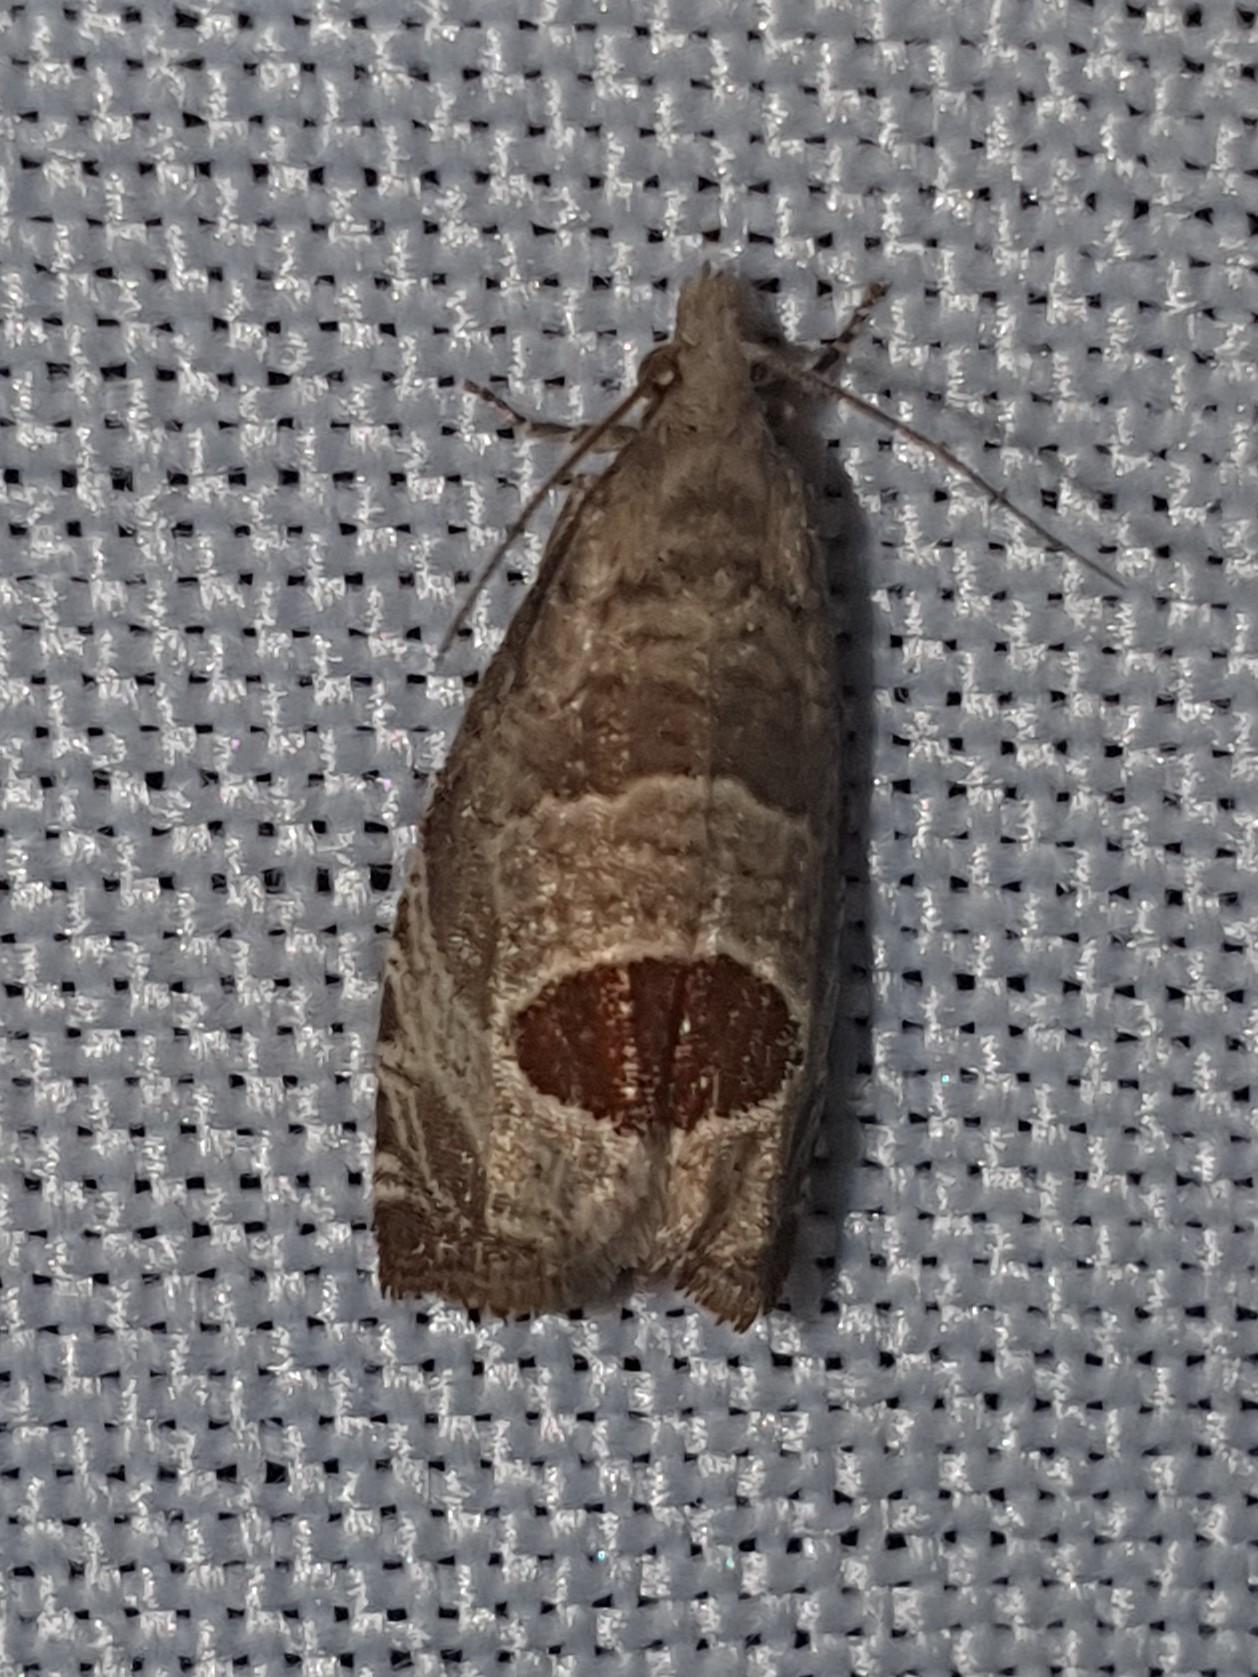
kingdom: Animalia
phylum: Arthropoda
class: Insecta
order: Lepidoptera
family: Tortricidae
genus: Notocelia
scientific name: Notocelia uddmanniana
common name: Bramble shoot moth
